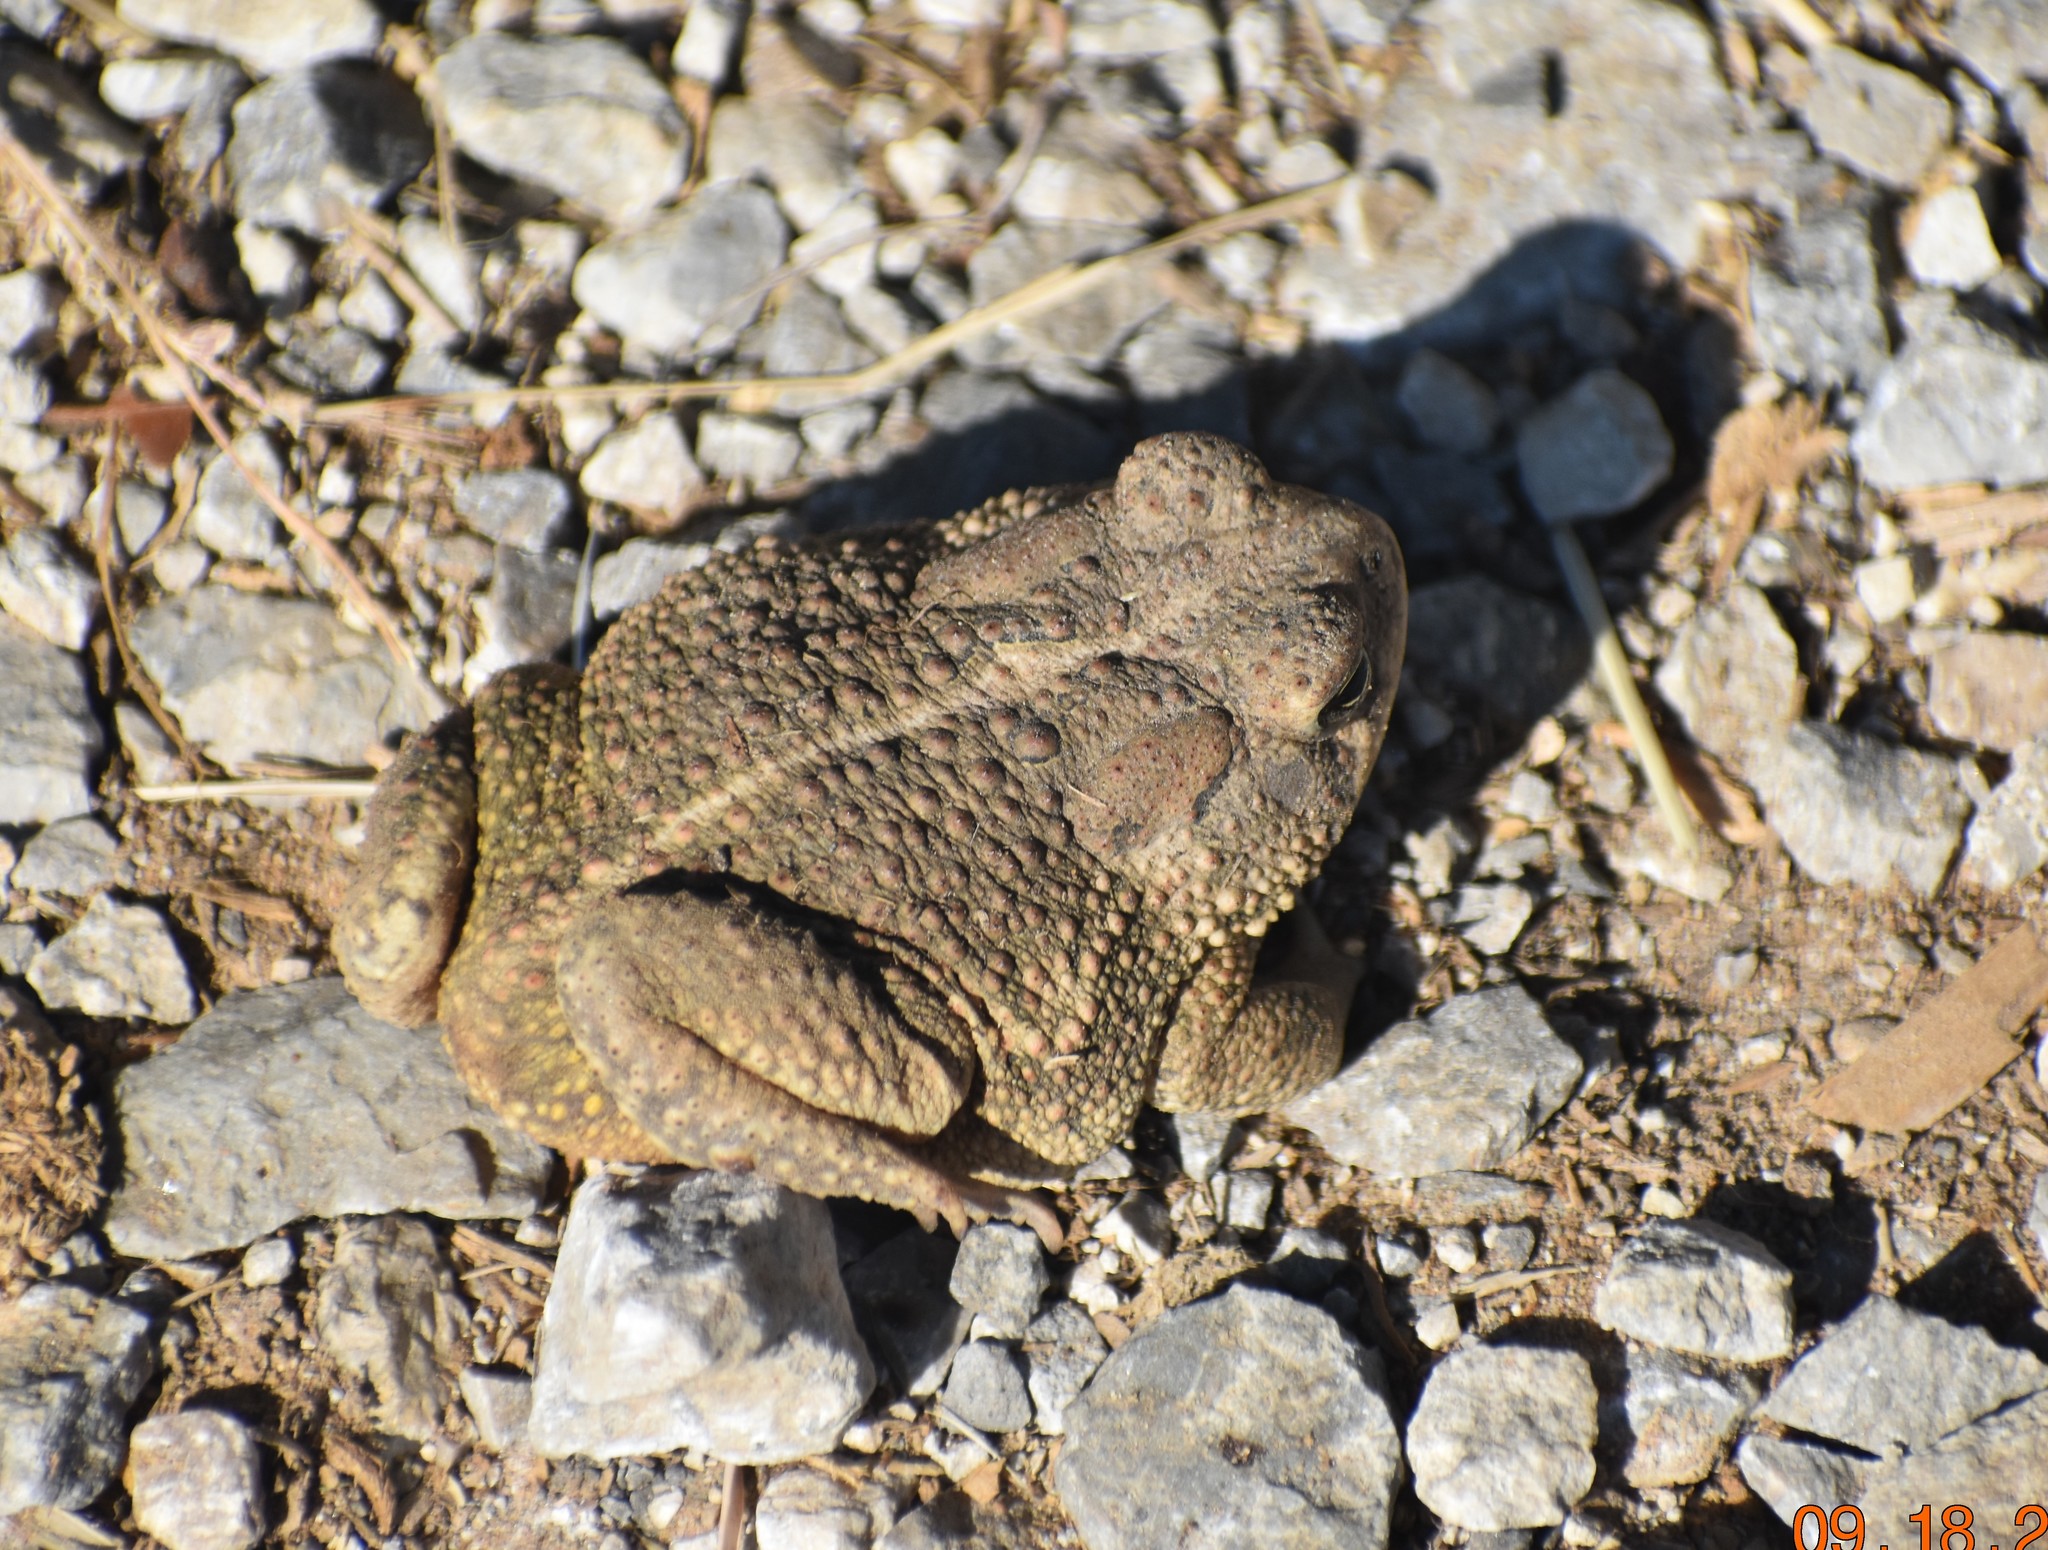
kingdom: Animalia
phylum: Chordata
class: Amphibia
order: Anura
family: Bufonidae
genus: Anaxyrus
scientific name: Anaxyrus speciosus
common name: Texas toad
